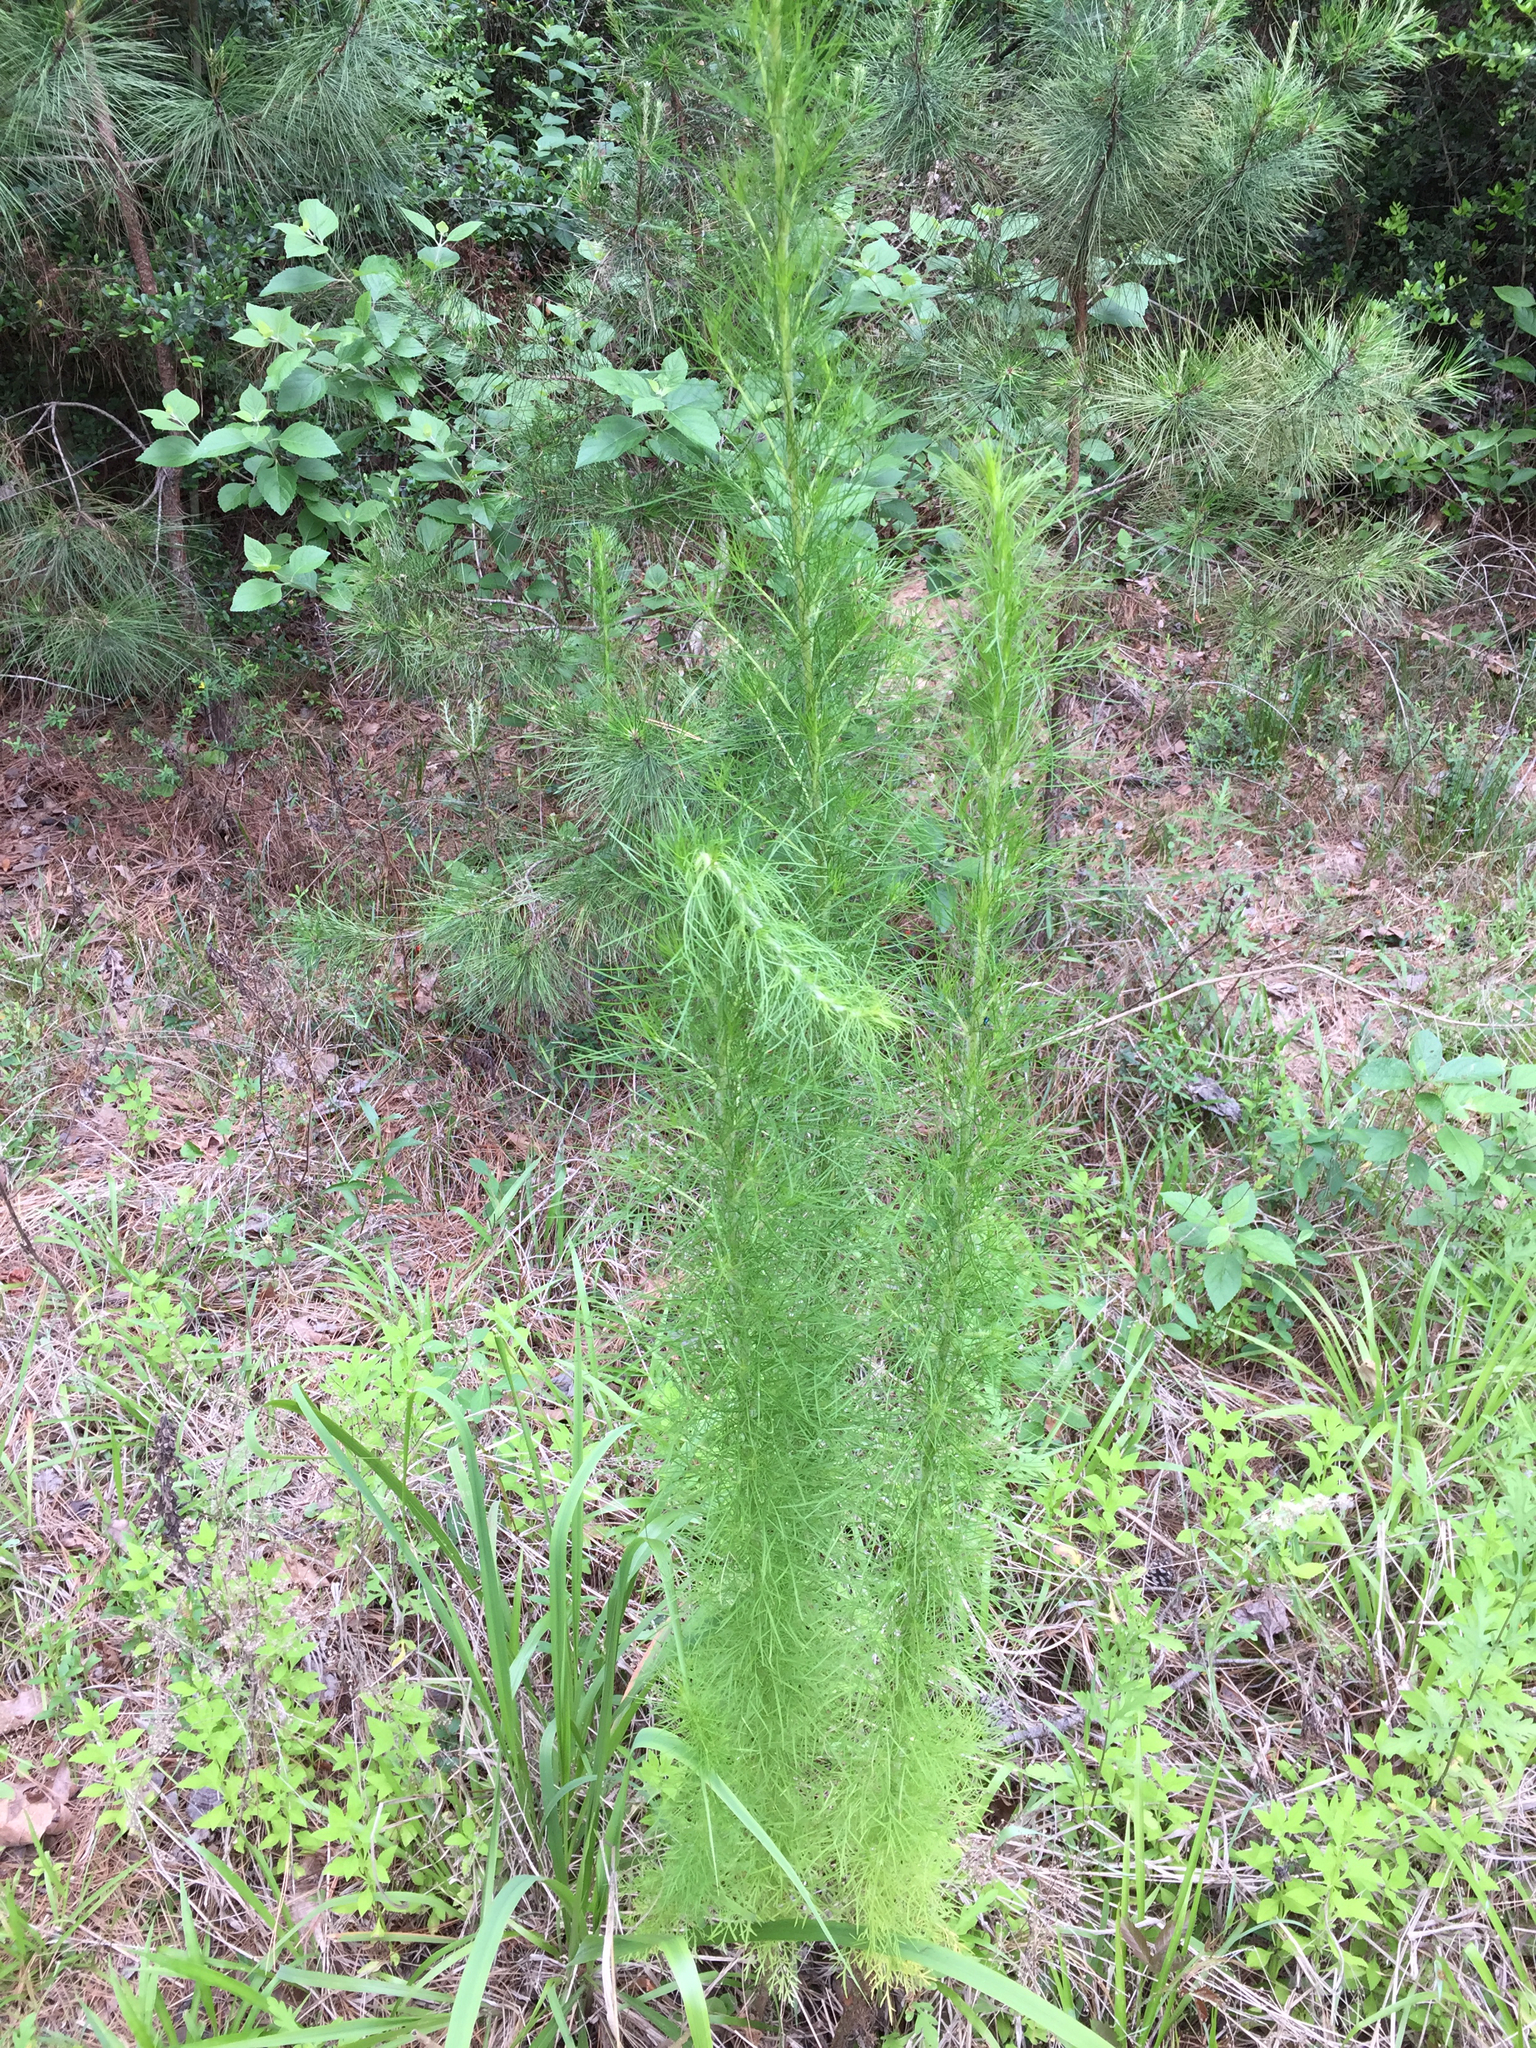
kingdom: Plantae
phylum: Tracheophyta
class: Magnoliopsida
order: Asterales
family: Asteraceae
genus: Eupatorium
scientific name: Eupatorium capillifolium
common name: Dog-fennel
